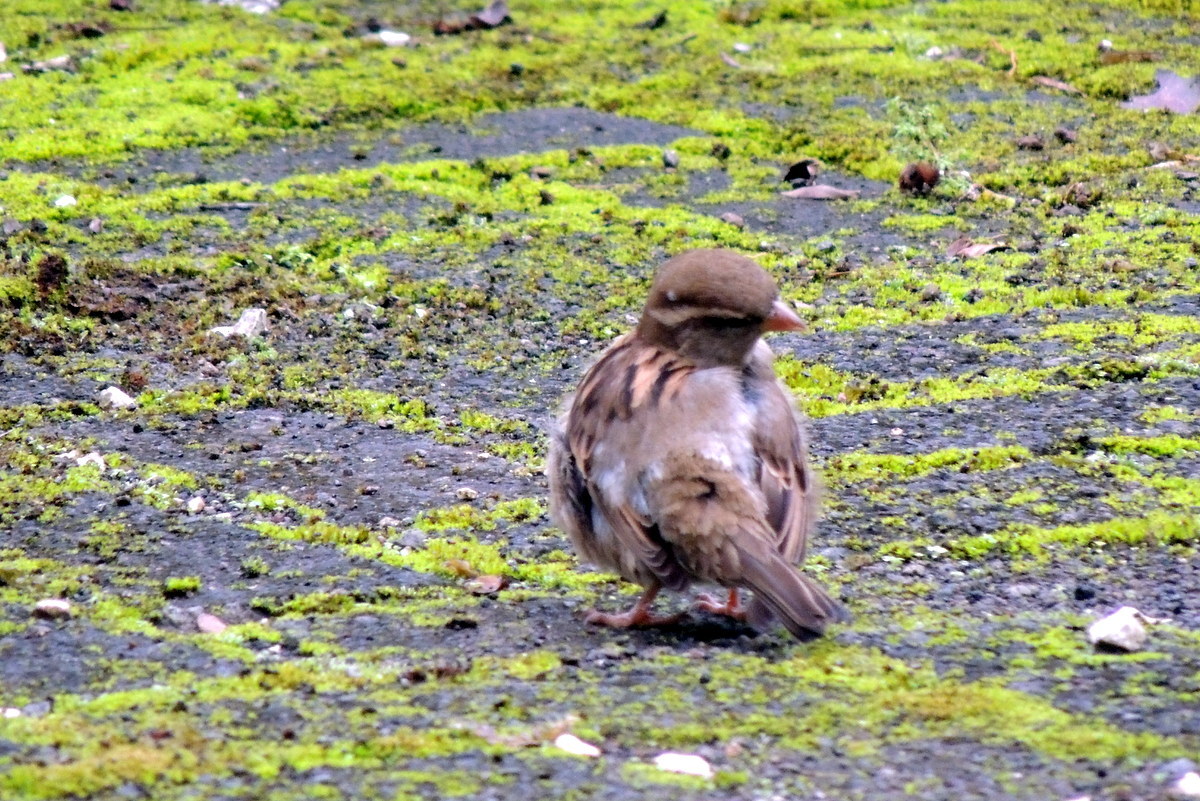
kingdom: Animalia
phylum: Chordata
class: Aves
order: Passeriformes
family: Passeridae
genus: Passer
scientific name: Passer domesticus
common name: House sparrow
